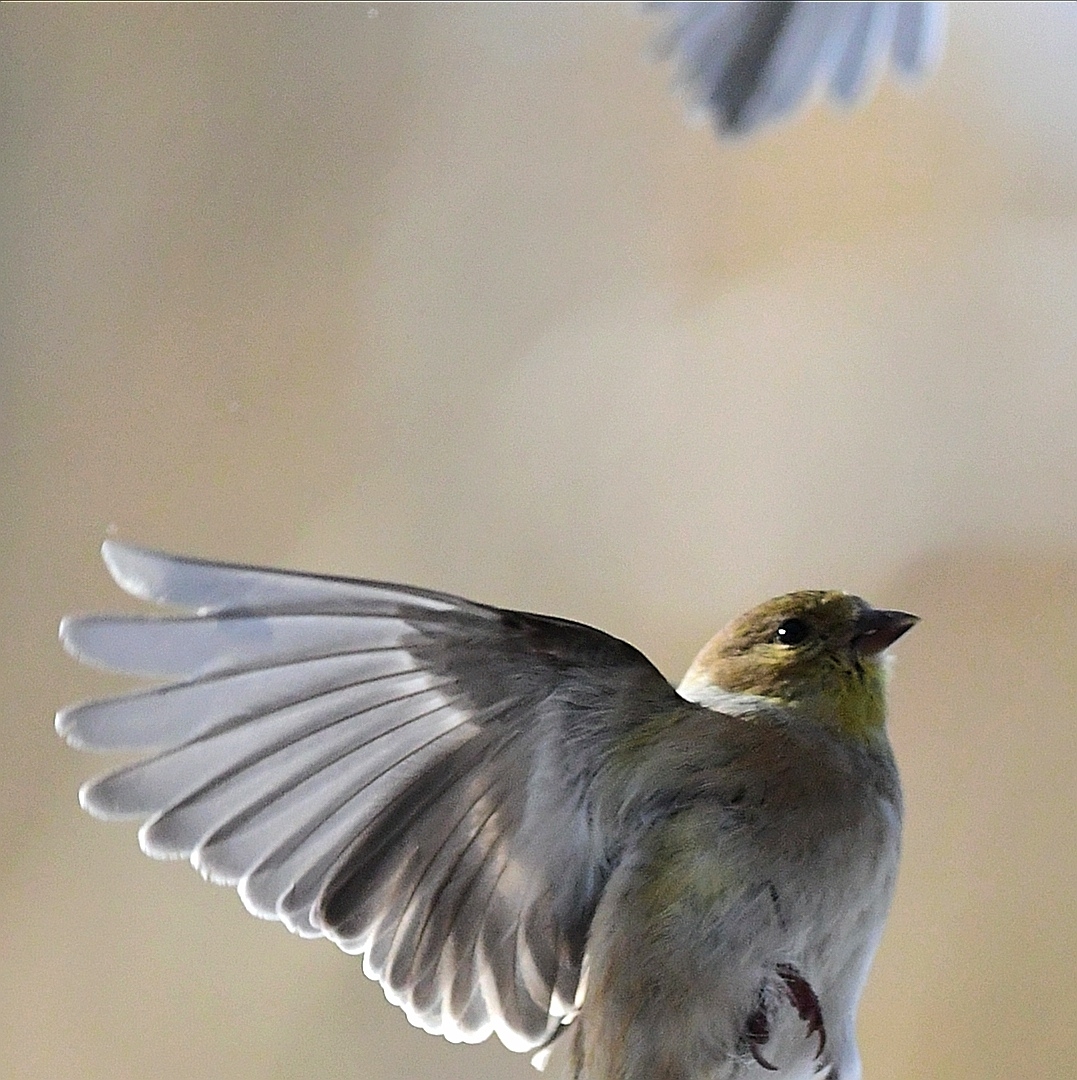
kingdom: Animalia
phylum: Chordata
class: Aves
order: Passeriformes
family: Fringillidae
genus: Spinus
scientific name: Spinus tristis
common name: American goldfinch
